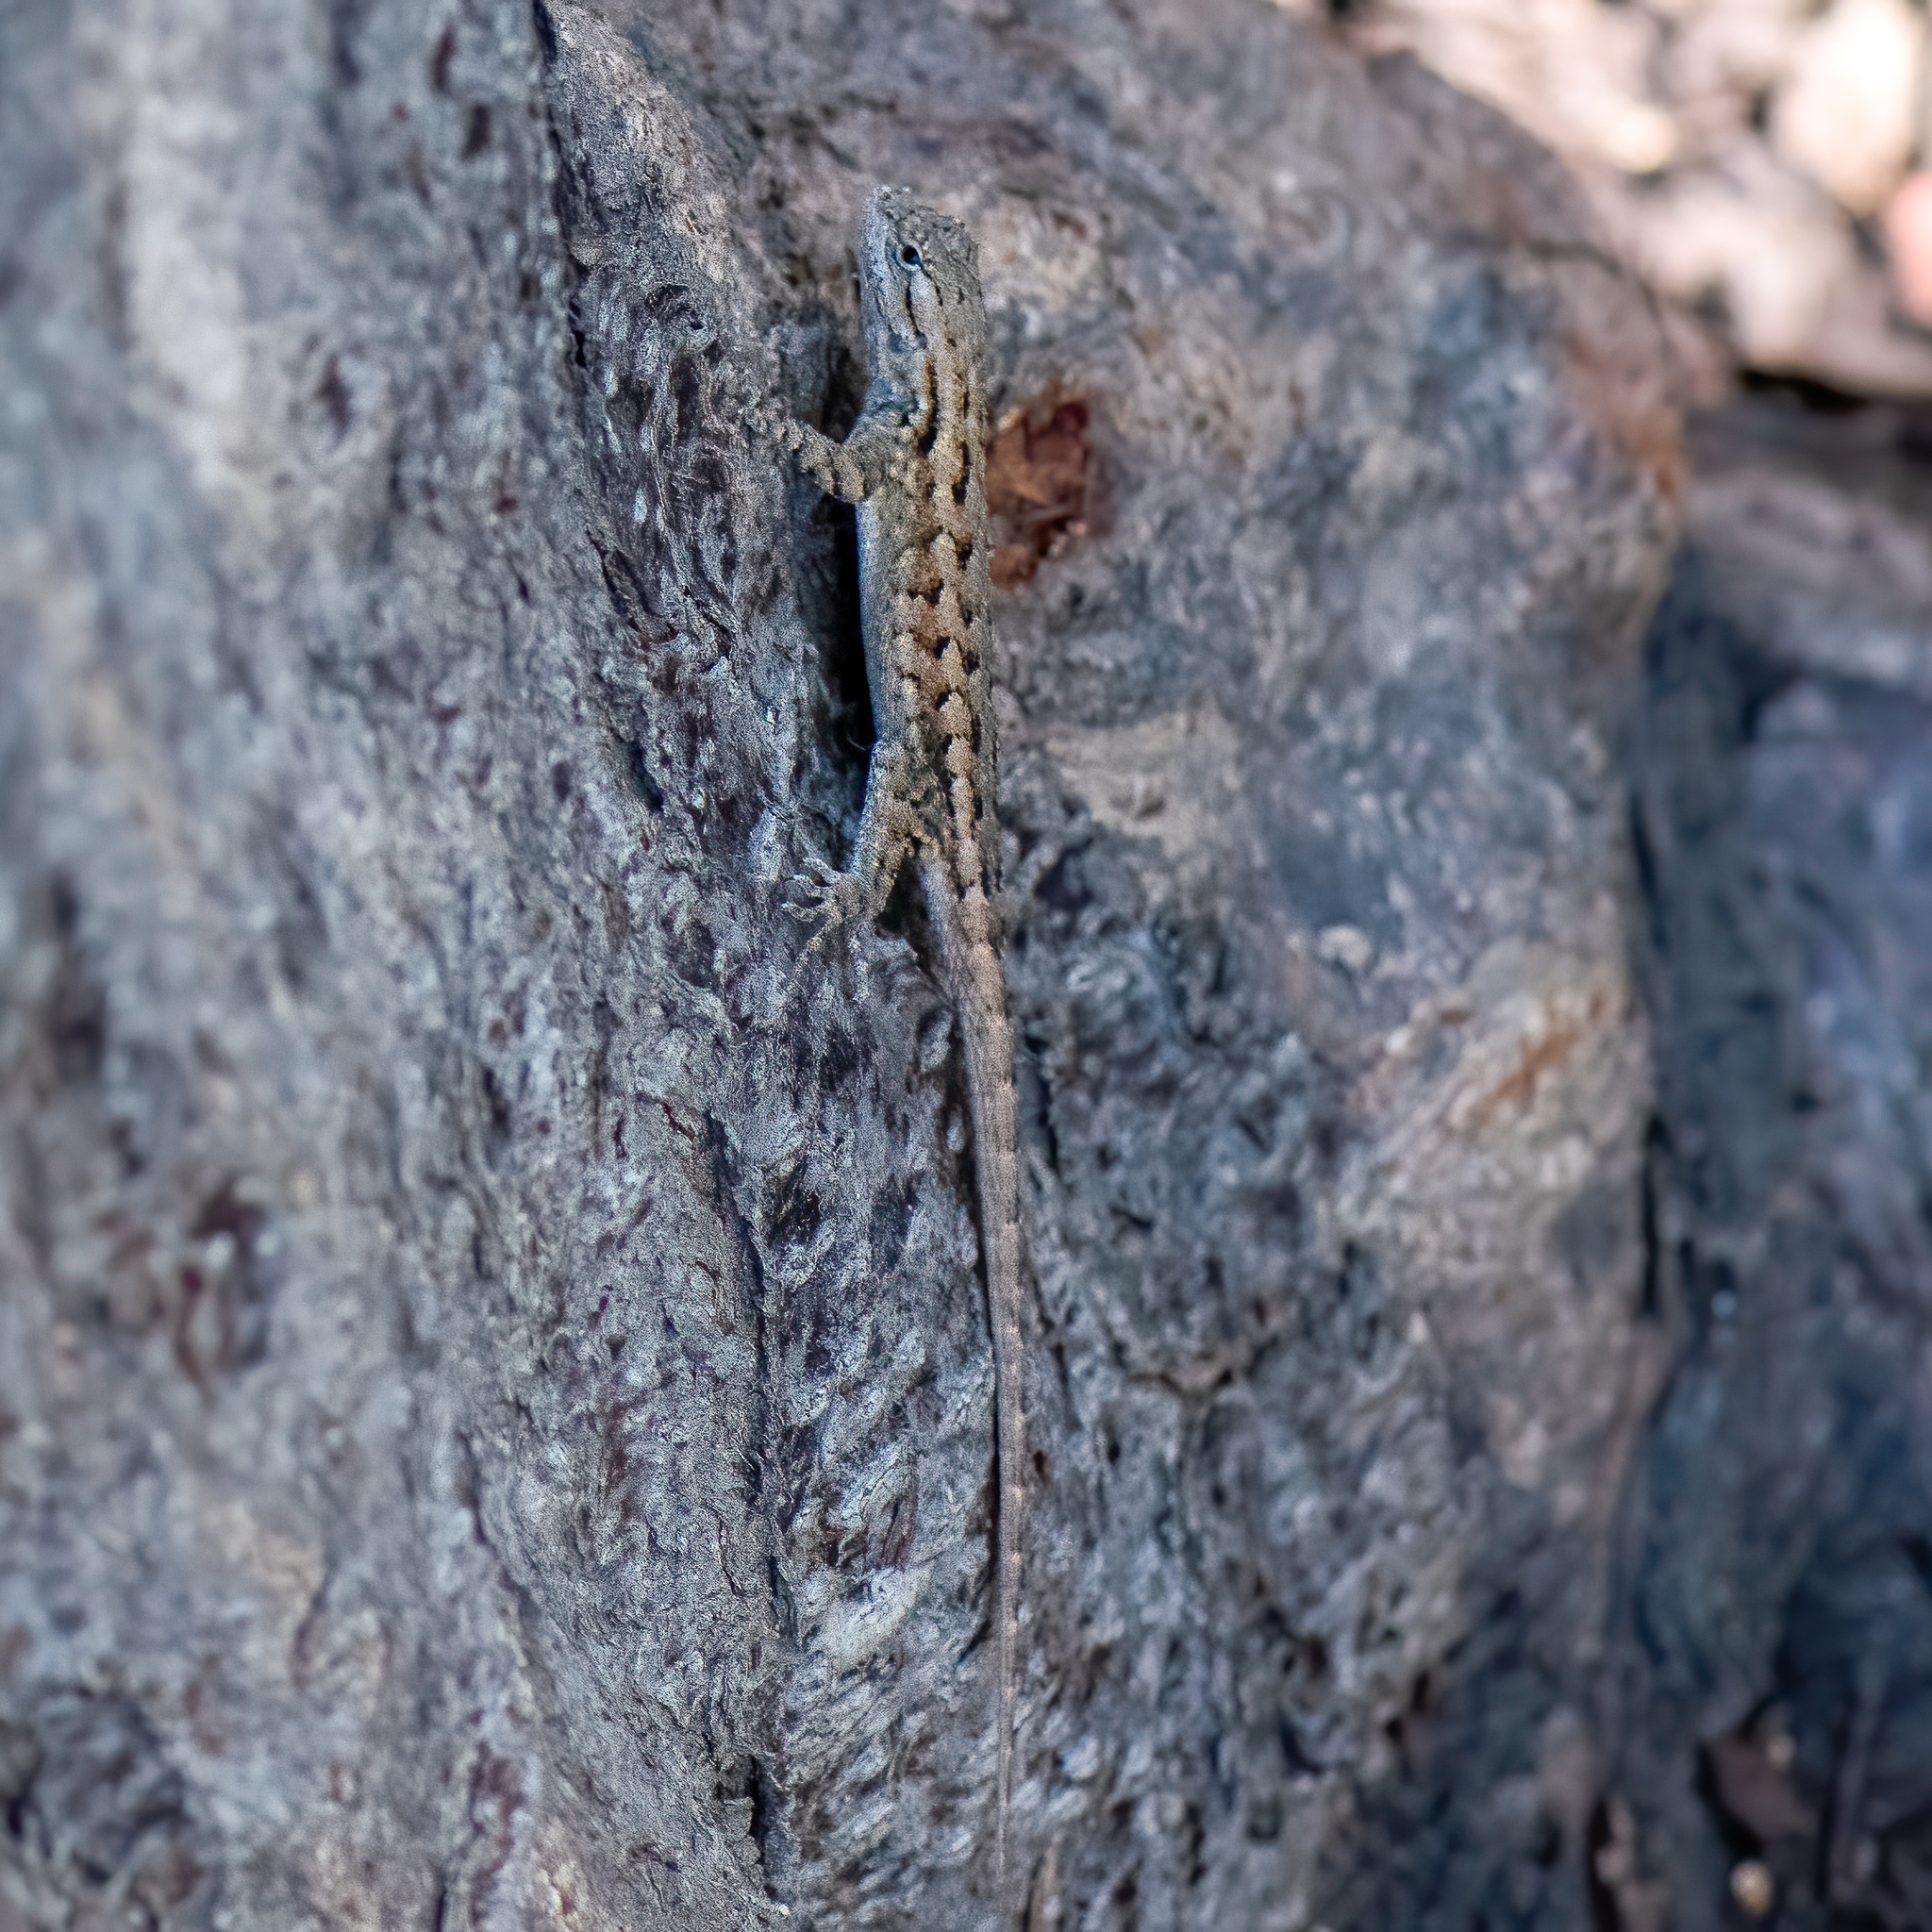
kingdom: Animalia
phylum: Chordata
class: Squamata
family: Phrynosomatidae
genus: Sceloporus
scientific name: Sceloporus occidentalis
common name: Western fence lizard
